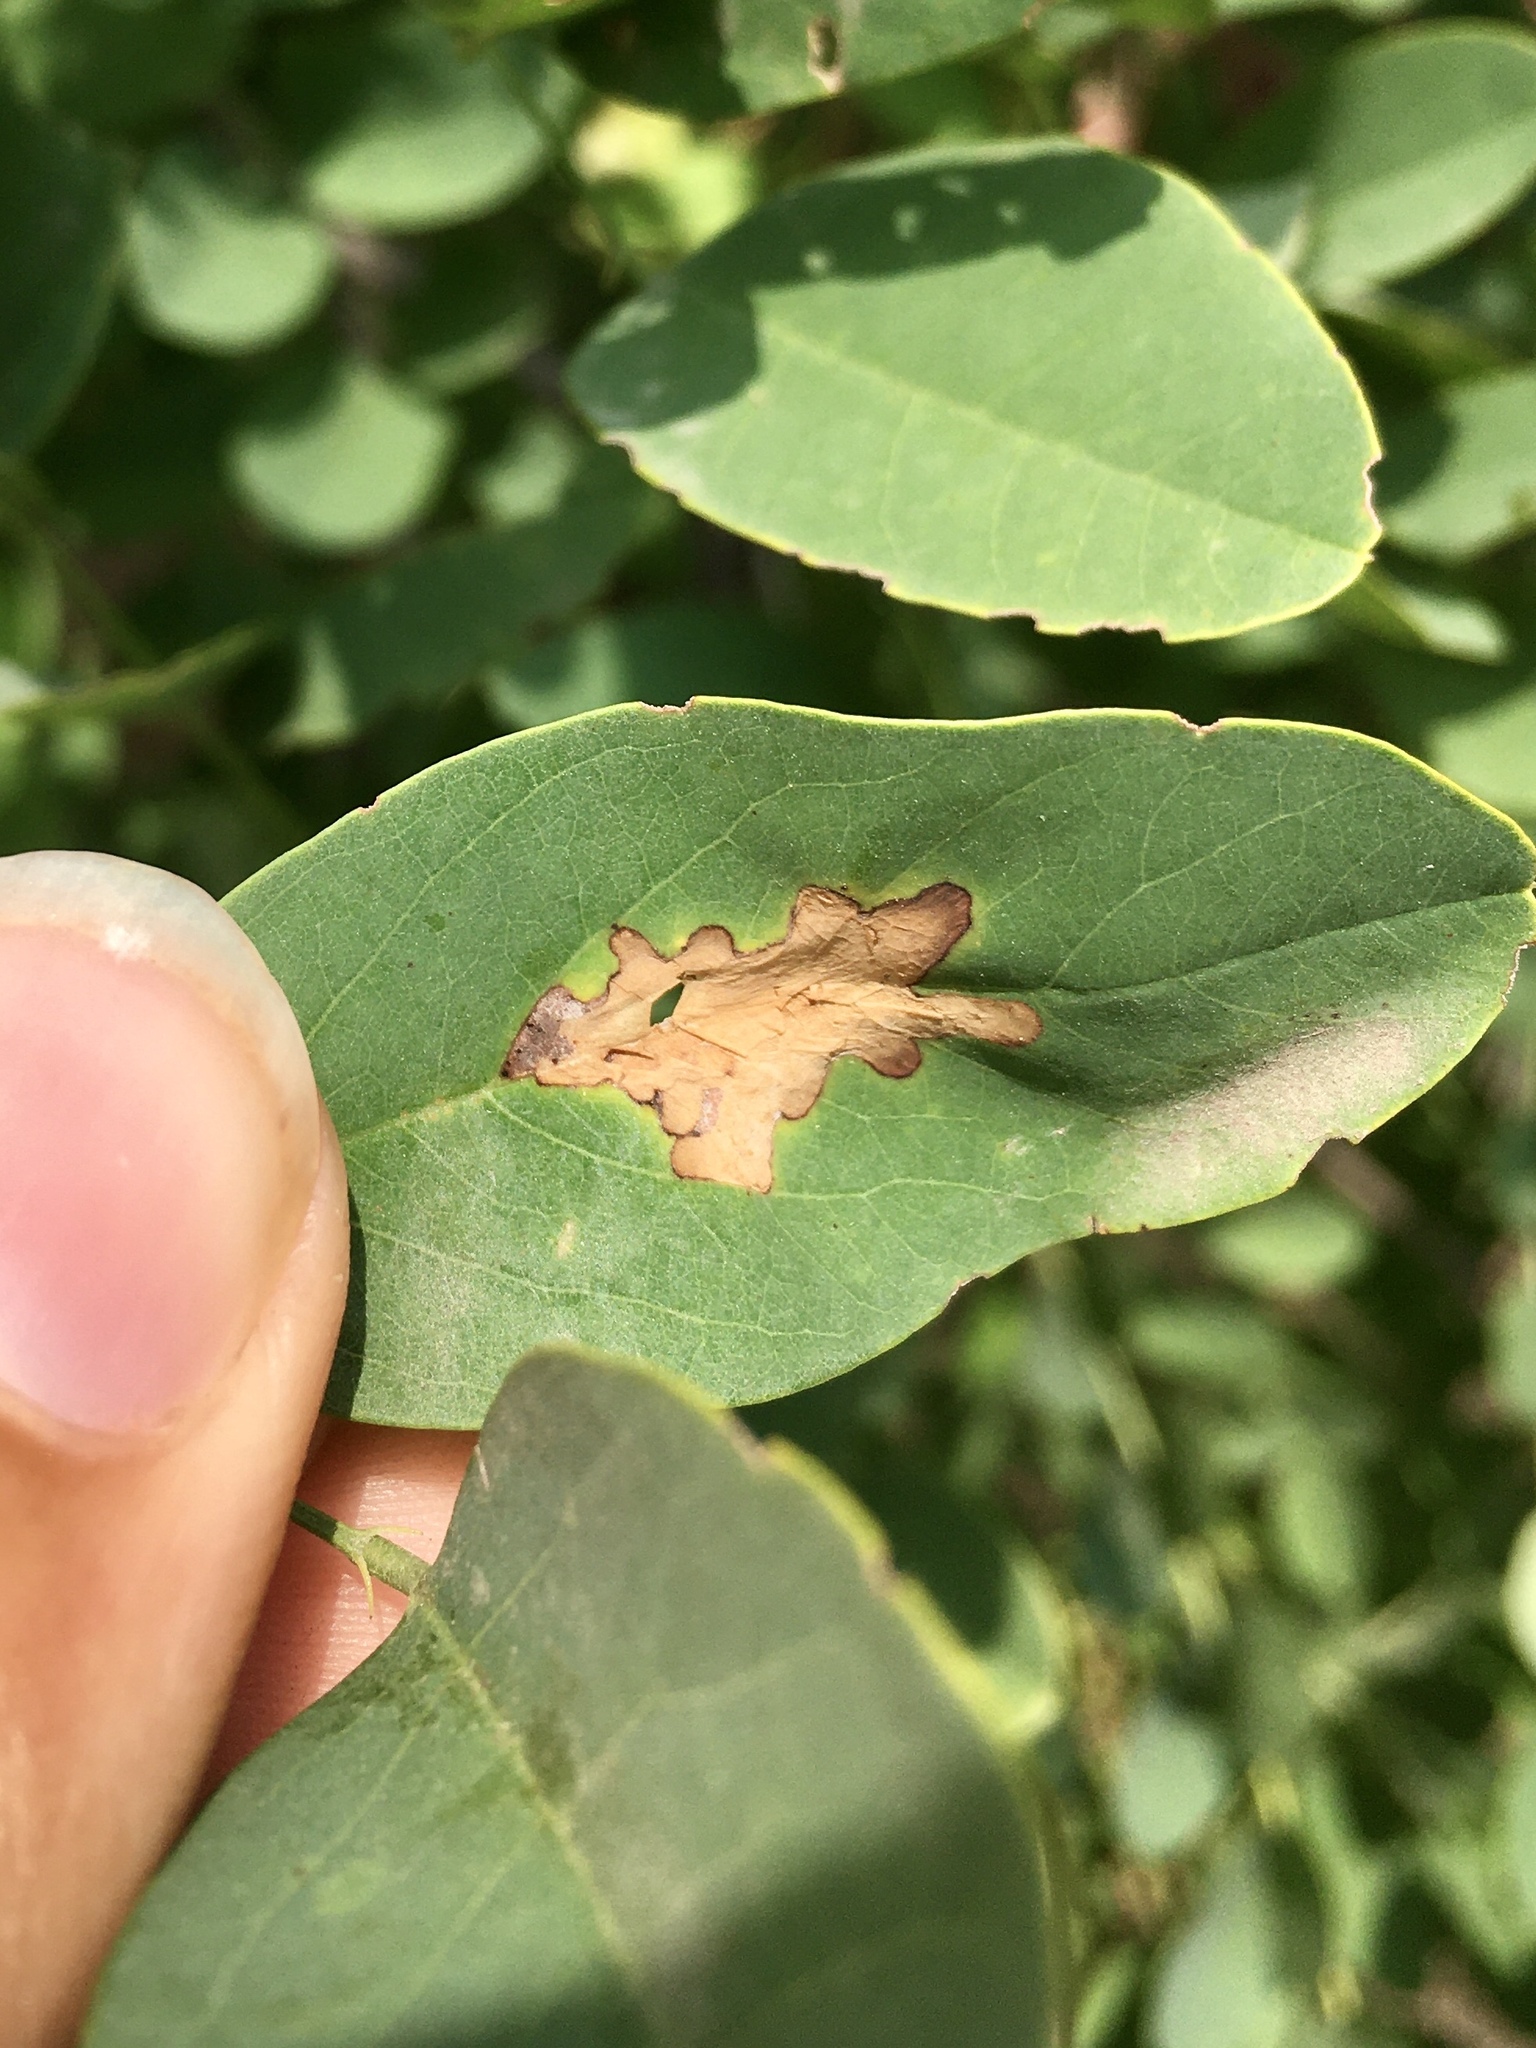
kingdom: Animalia
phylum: Arthropoda
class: Insecta
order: Lepidoptera
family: Gracillariidae
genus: Parectopa
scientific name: Parectopa robiniella
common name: Locust digitate leafminer
